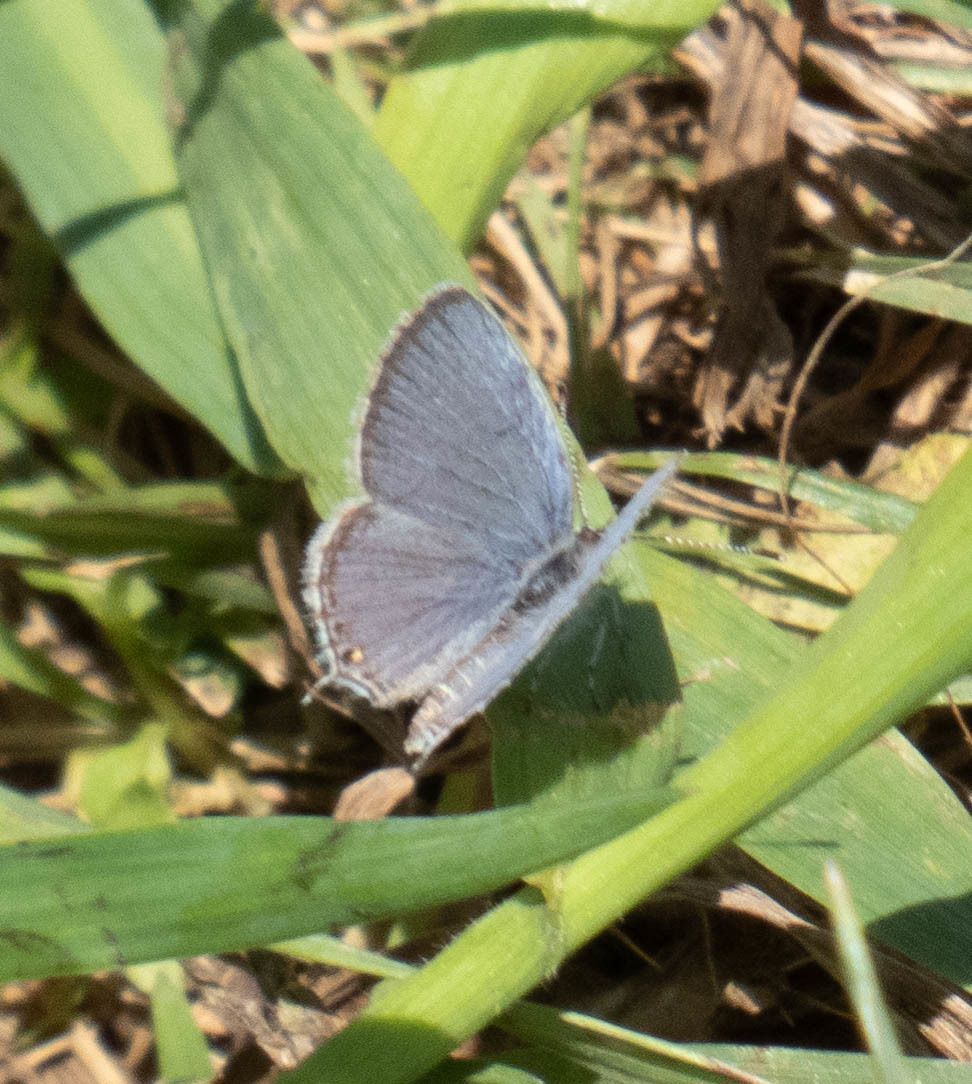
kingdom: Animalia
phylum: Arthropoda
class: Insecta
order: Lepidoptera
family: Lycaenidae
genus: Elkalyce
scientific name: Elkalyce comyntas
